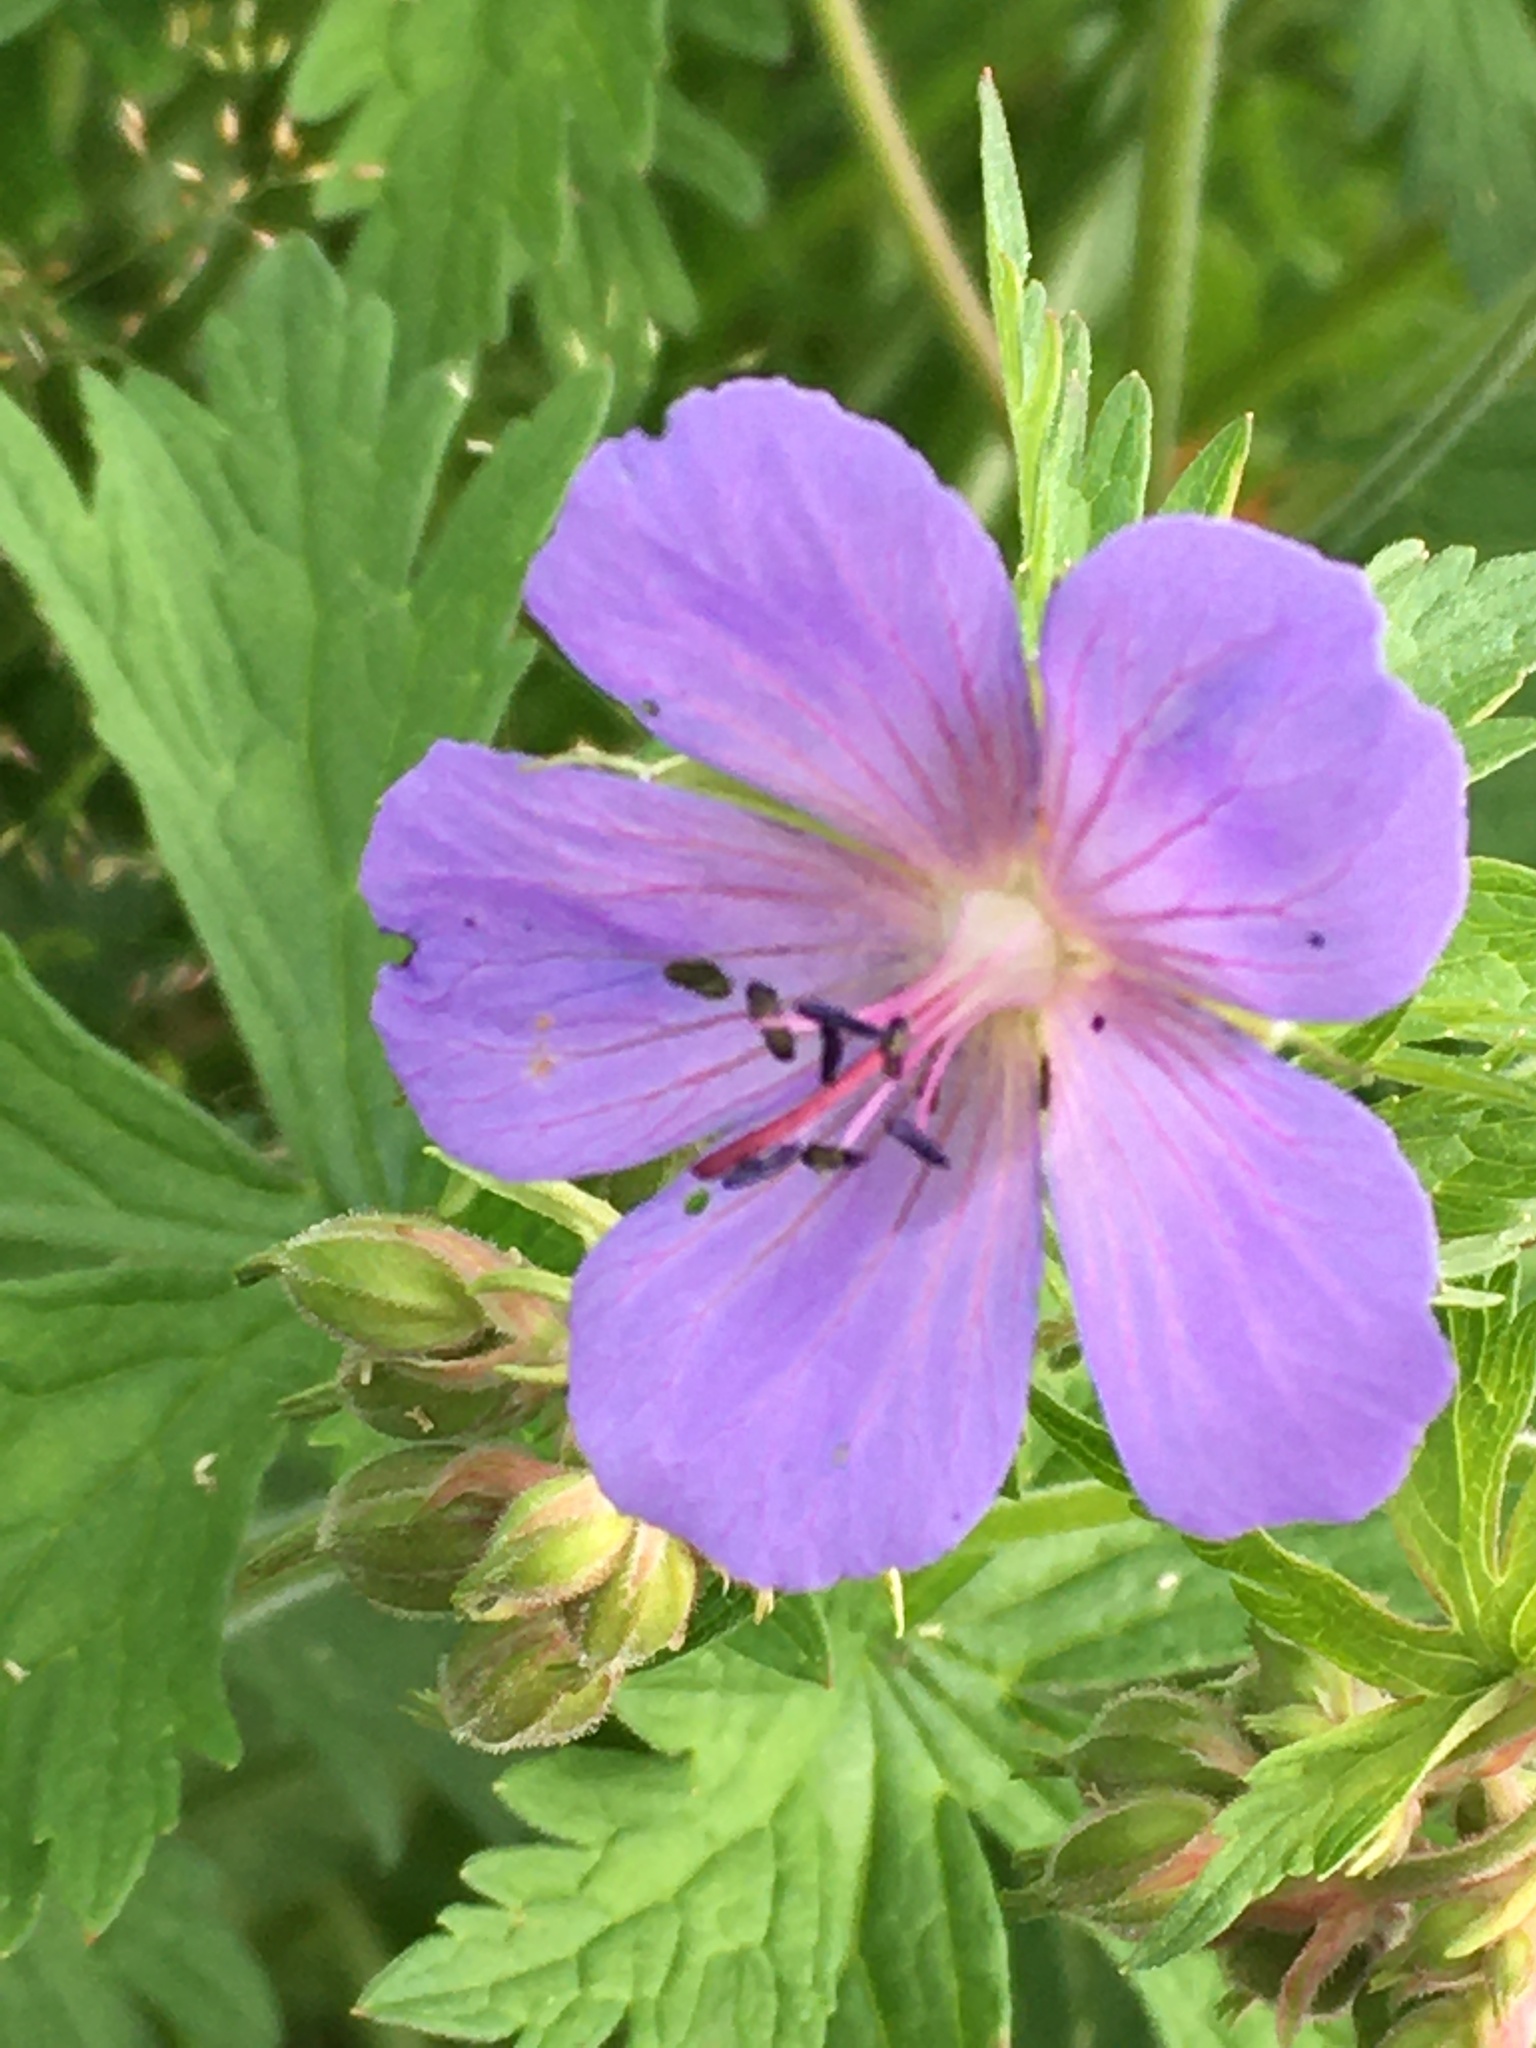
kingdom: Plantae
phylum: Tracheophyta
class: Magnoliopsida
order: Geraniales
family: Geraniaceae
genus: Geranium
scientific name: Geranium pratense
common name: Meadow crane's-bill
